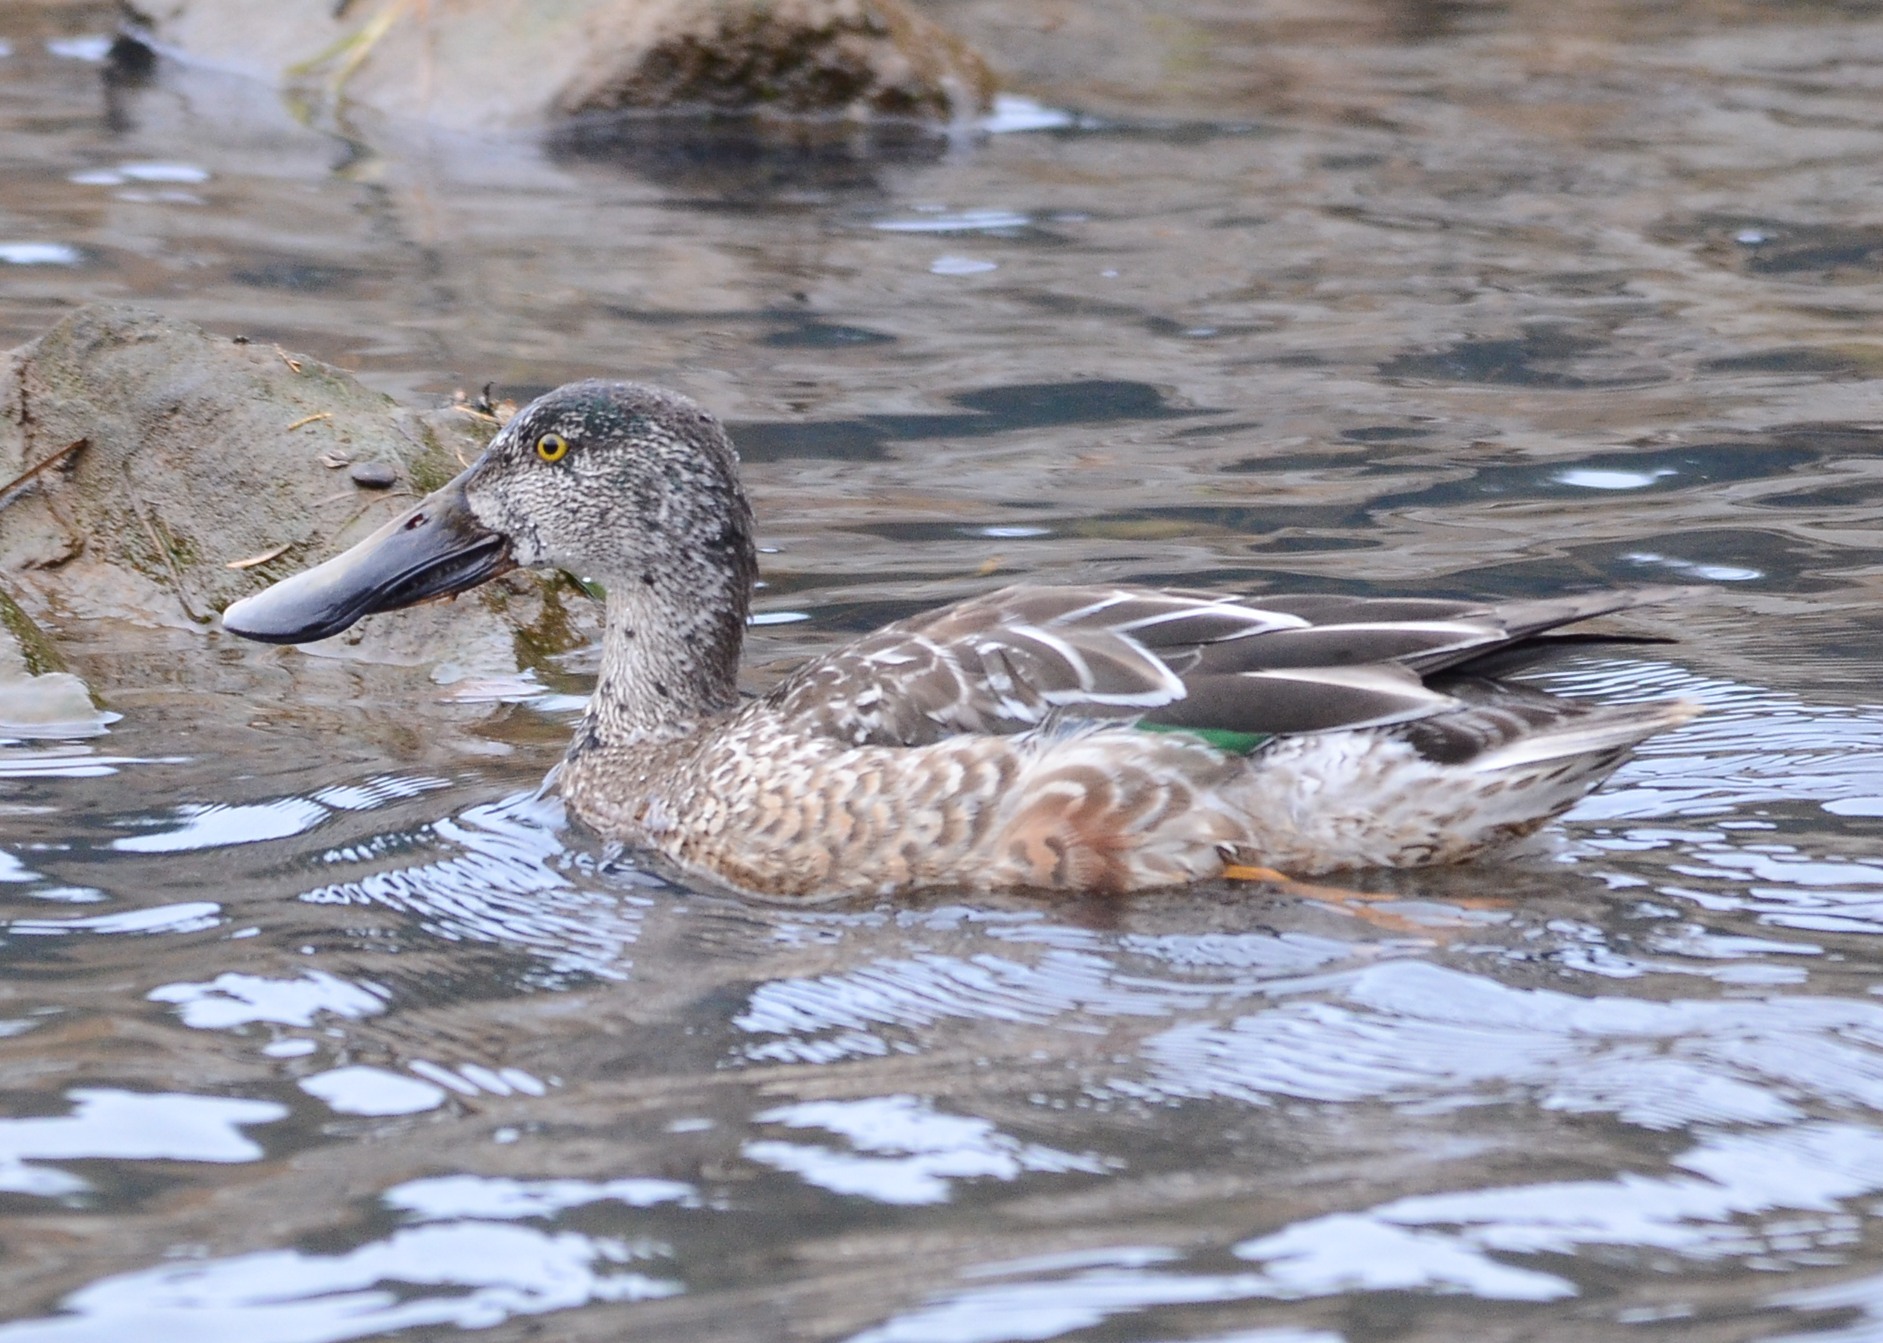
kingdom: Animalia
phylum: Chordata
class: Aves
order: Anseriformes
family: Anatidae
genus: Spatula
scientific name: Spatula clypeata
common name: Northern shoveler
